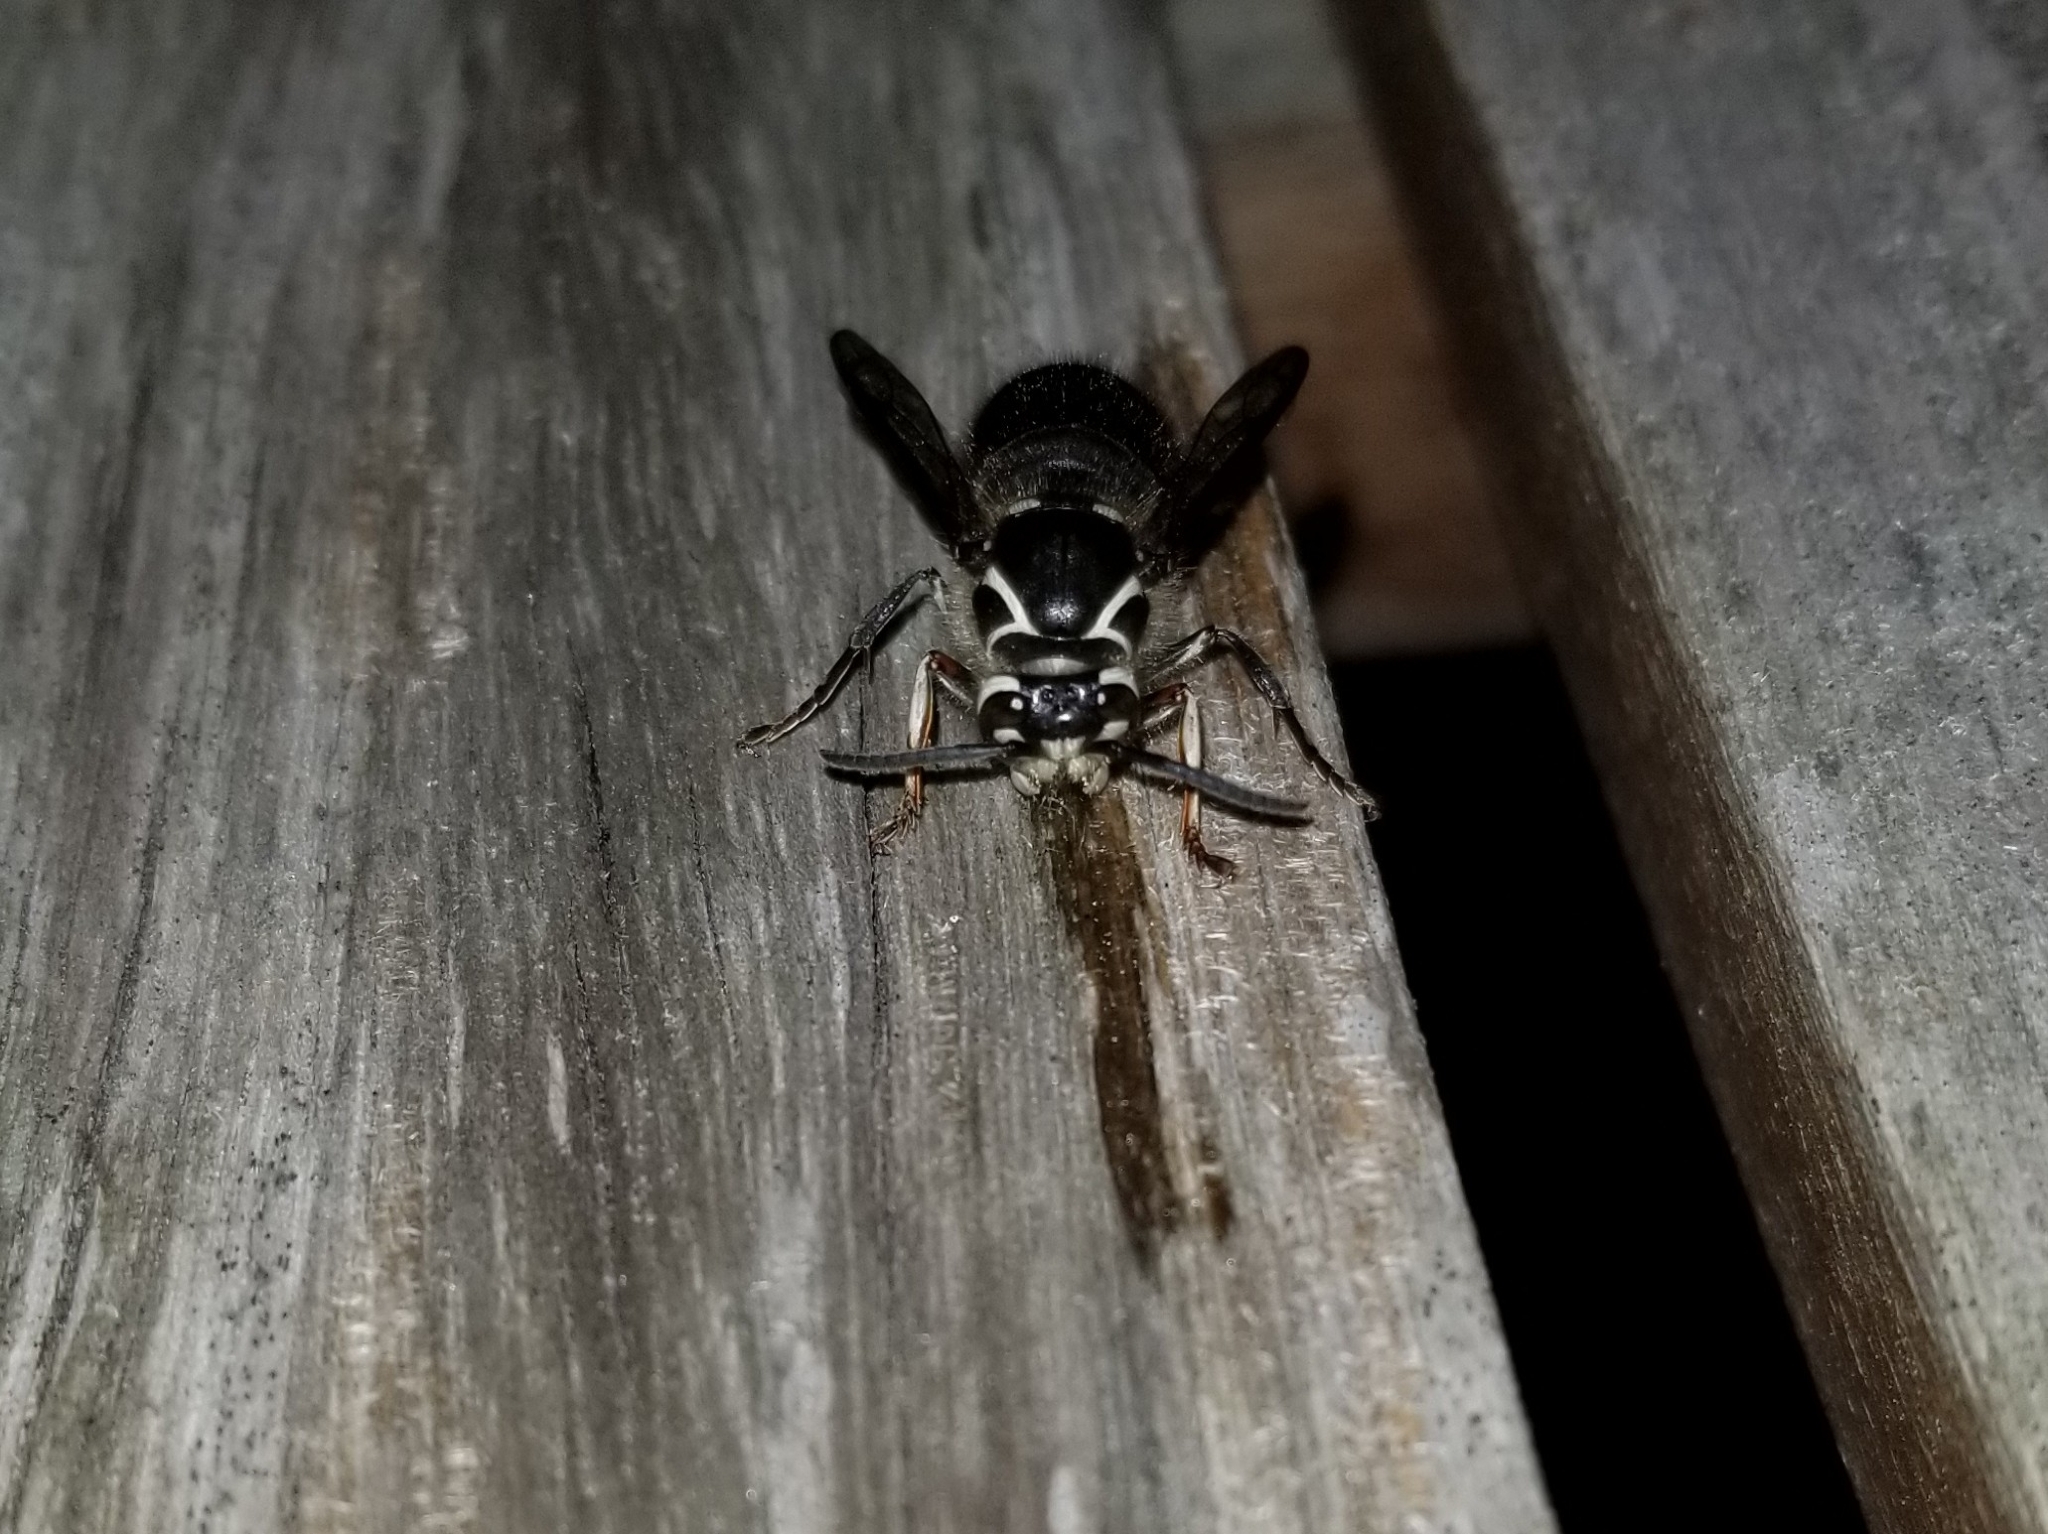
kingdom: Animalia
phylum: Arthropoda
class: Insecta
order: Hymenoptera
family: Vespidae
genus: Dolichovespula
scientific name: Dolichovespula maculata
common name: Bald-faced hornet
